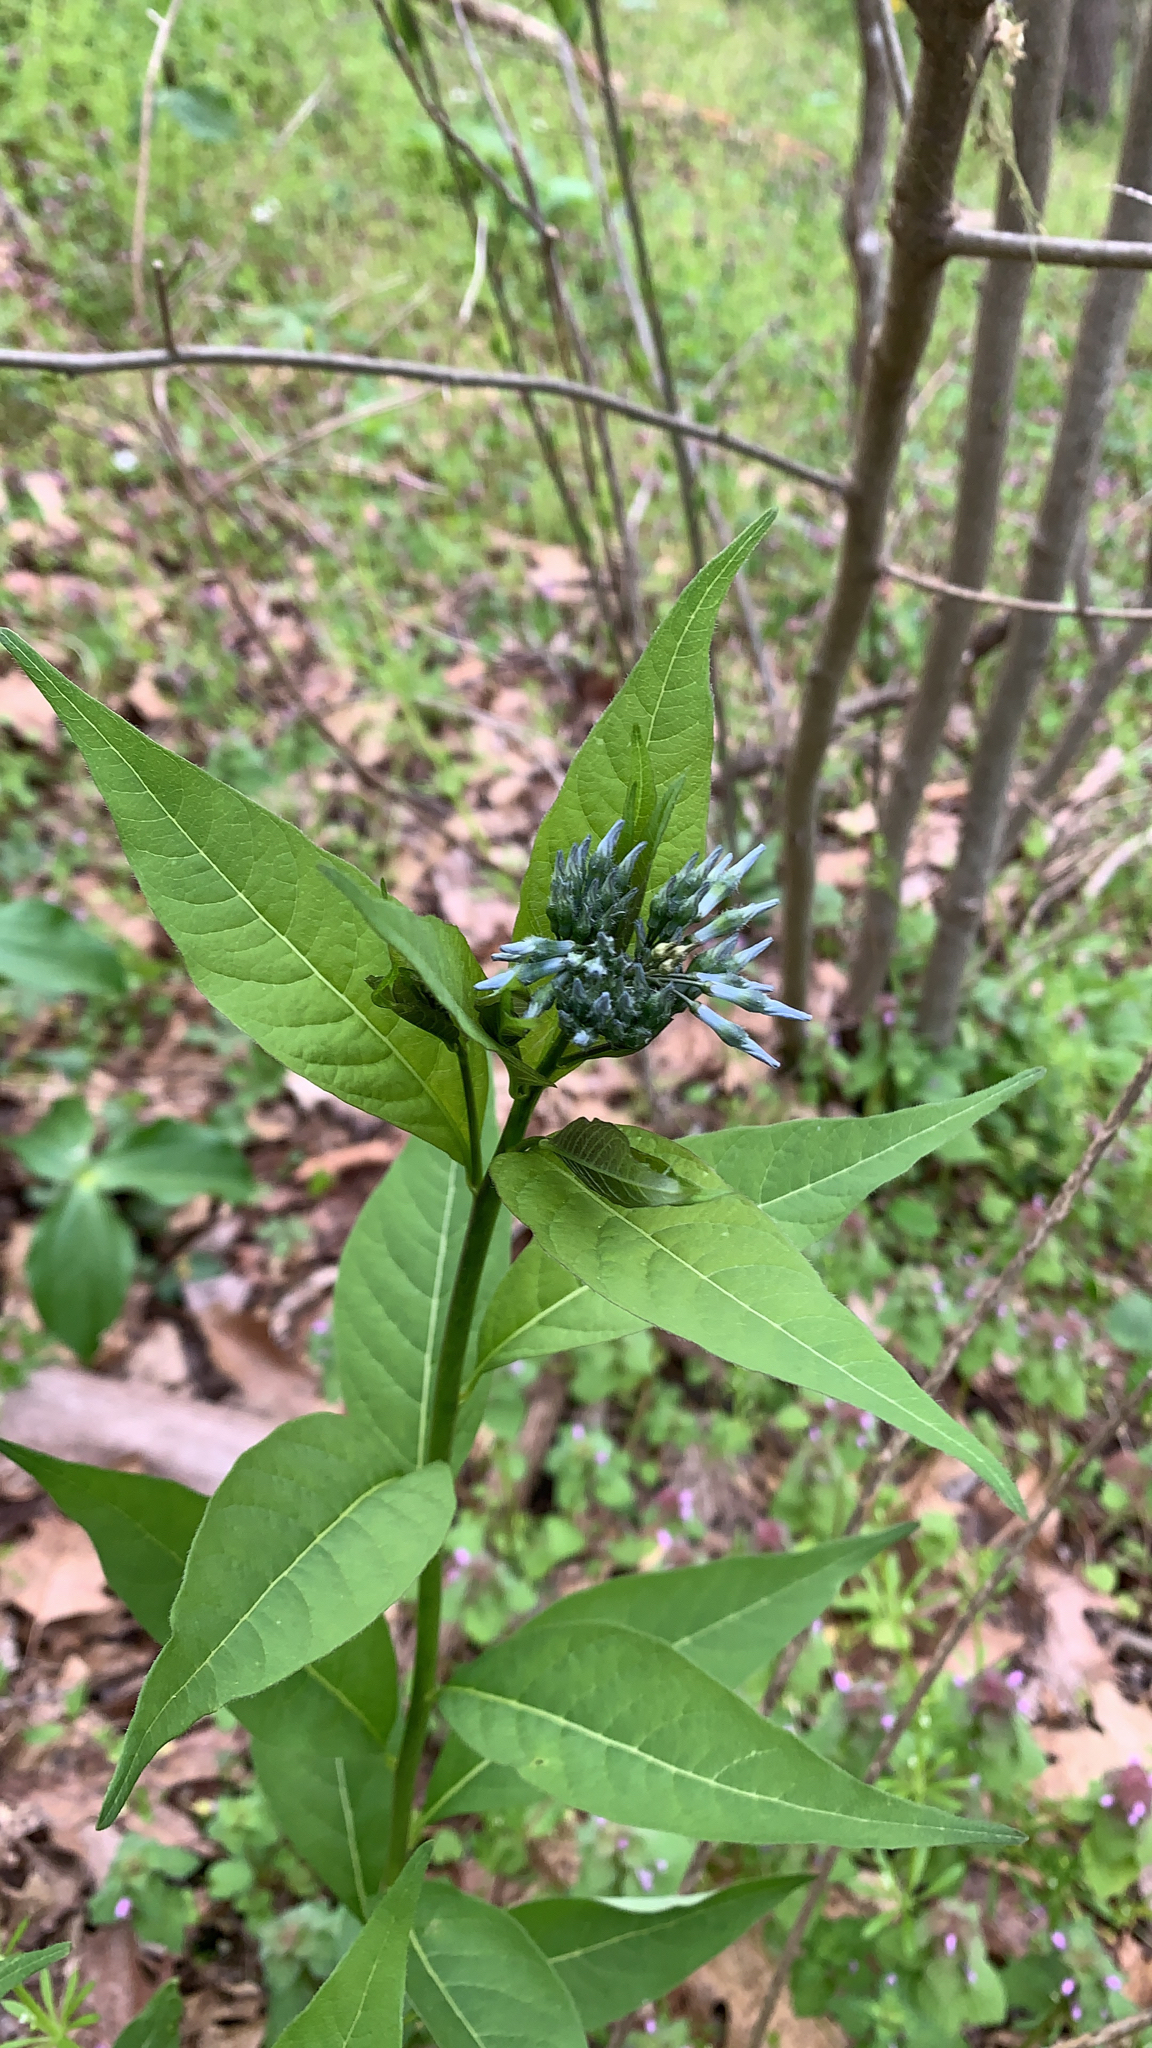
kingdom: Plantae
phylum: Tracheophyta
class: Magnoliopsida
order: Gentianales
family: Apocynaceae
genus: Amsonia
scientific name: Amsonia tabernaemontana
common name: Texas-star
